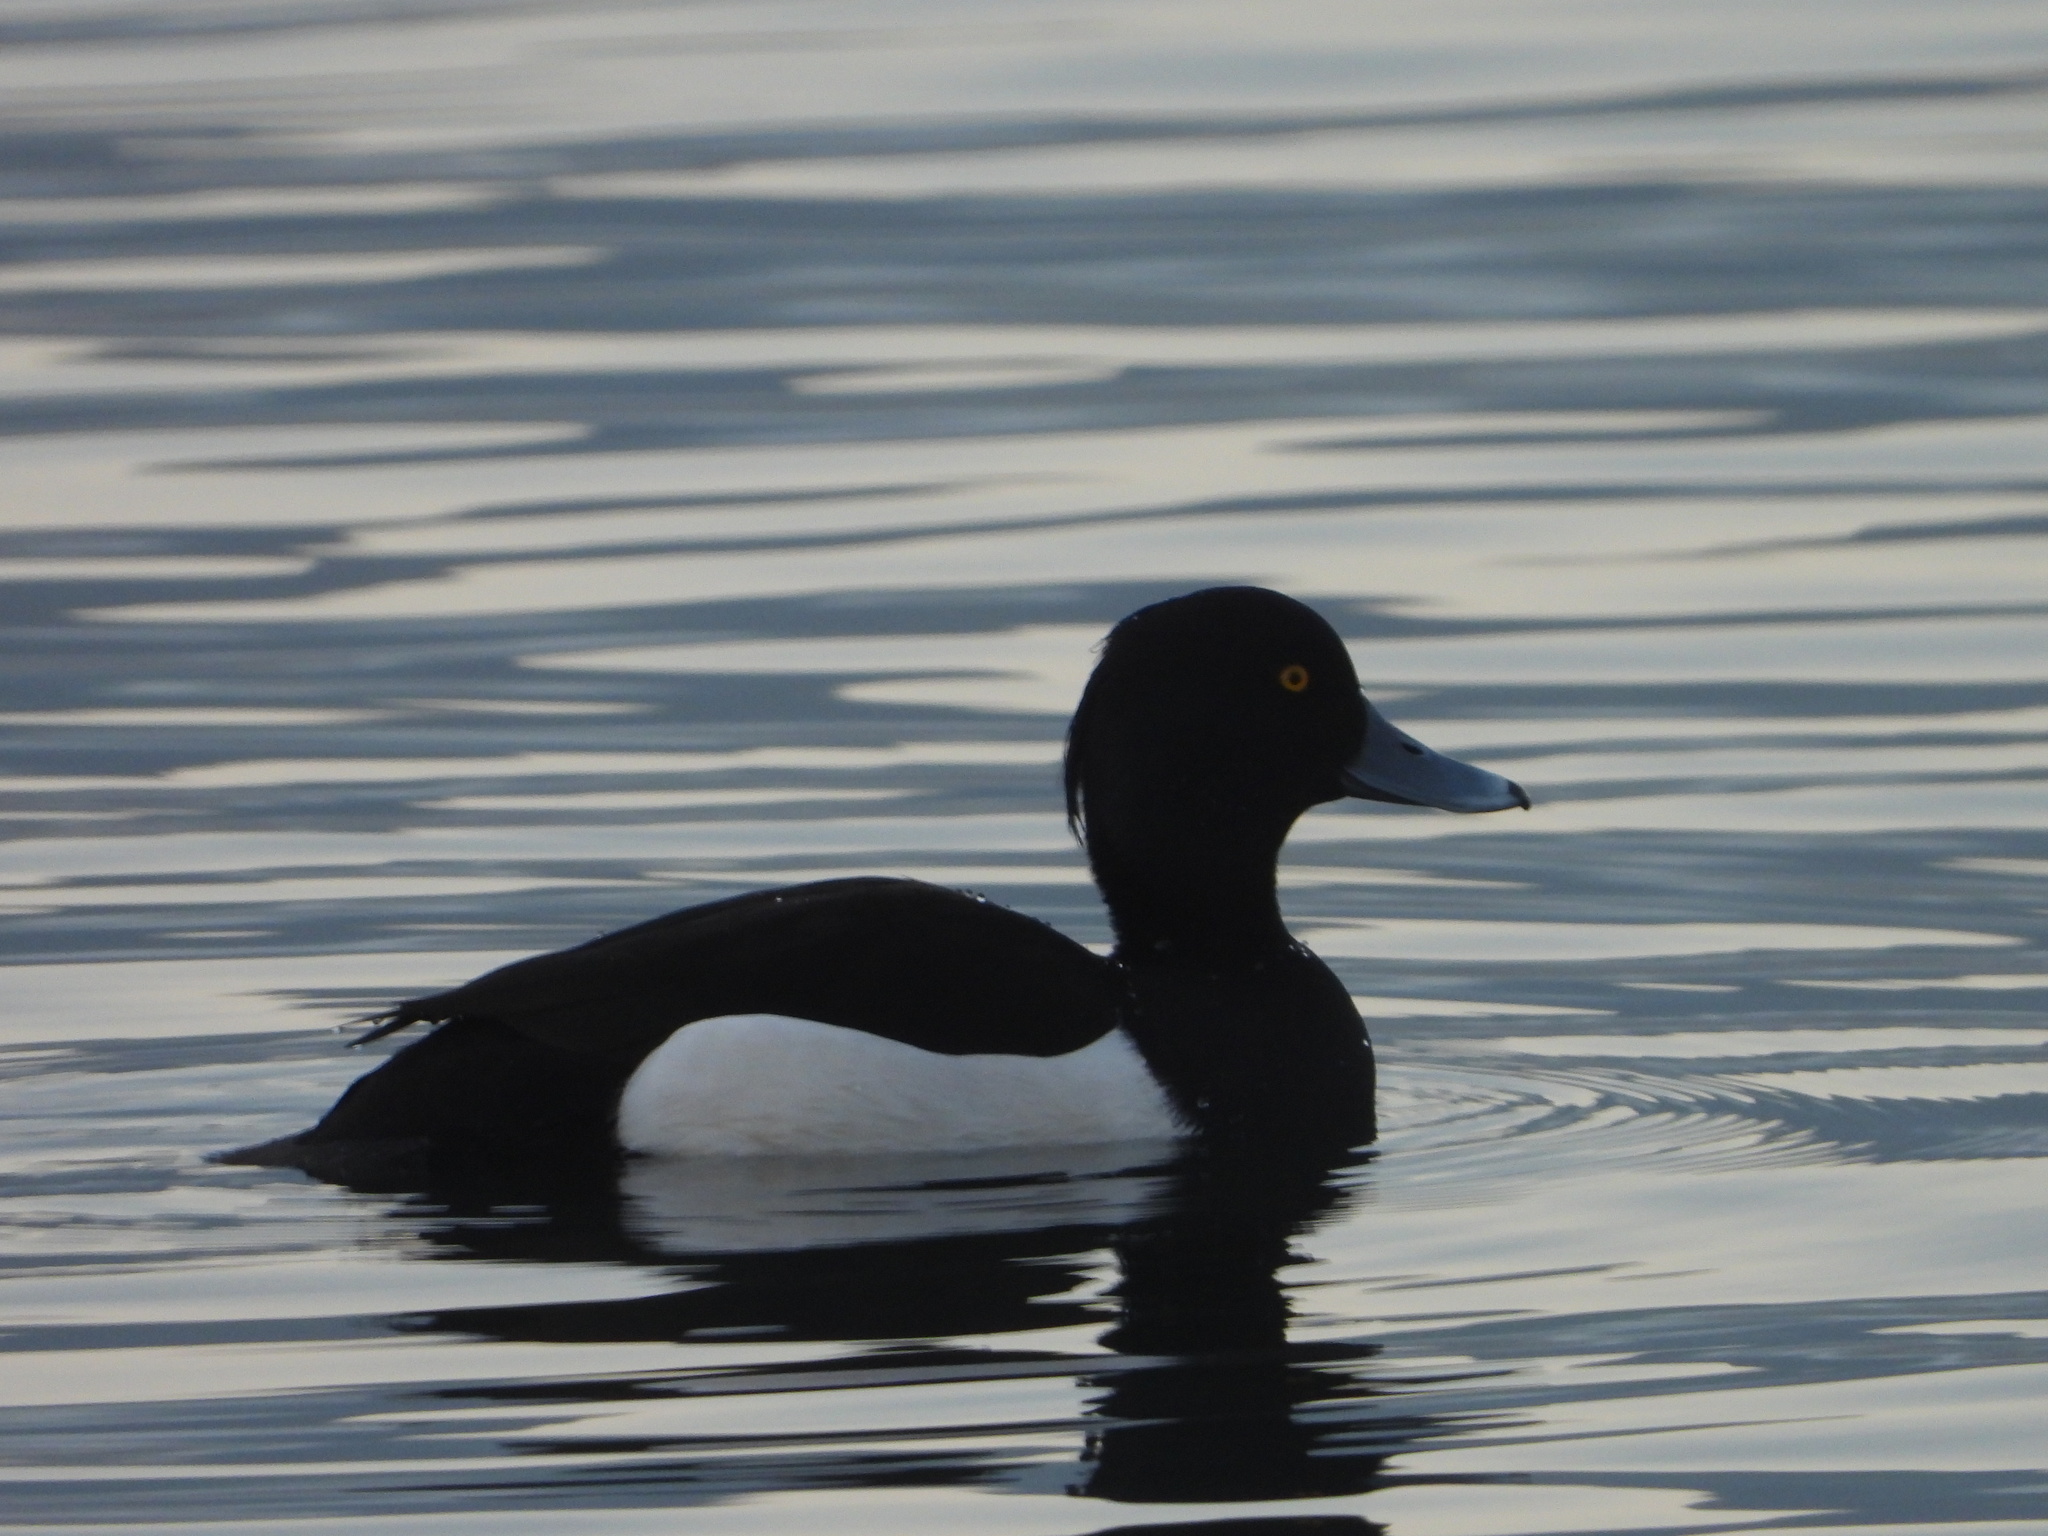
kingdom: Animalia
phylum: Chordata
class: Aves
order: Anseriformes
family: Anatidae
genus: Aythya
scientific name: Aythya fuligula
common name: Tufted duck
